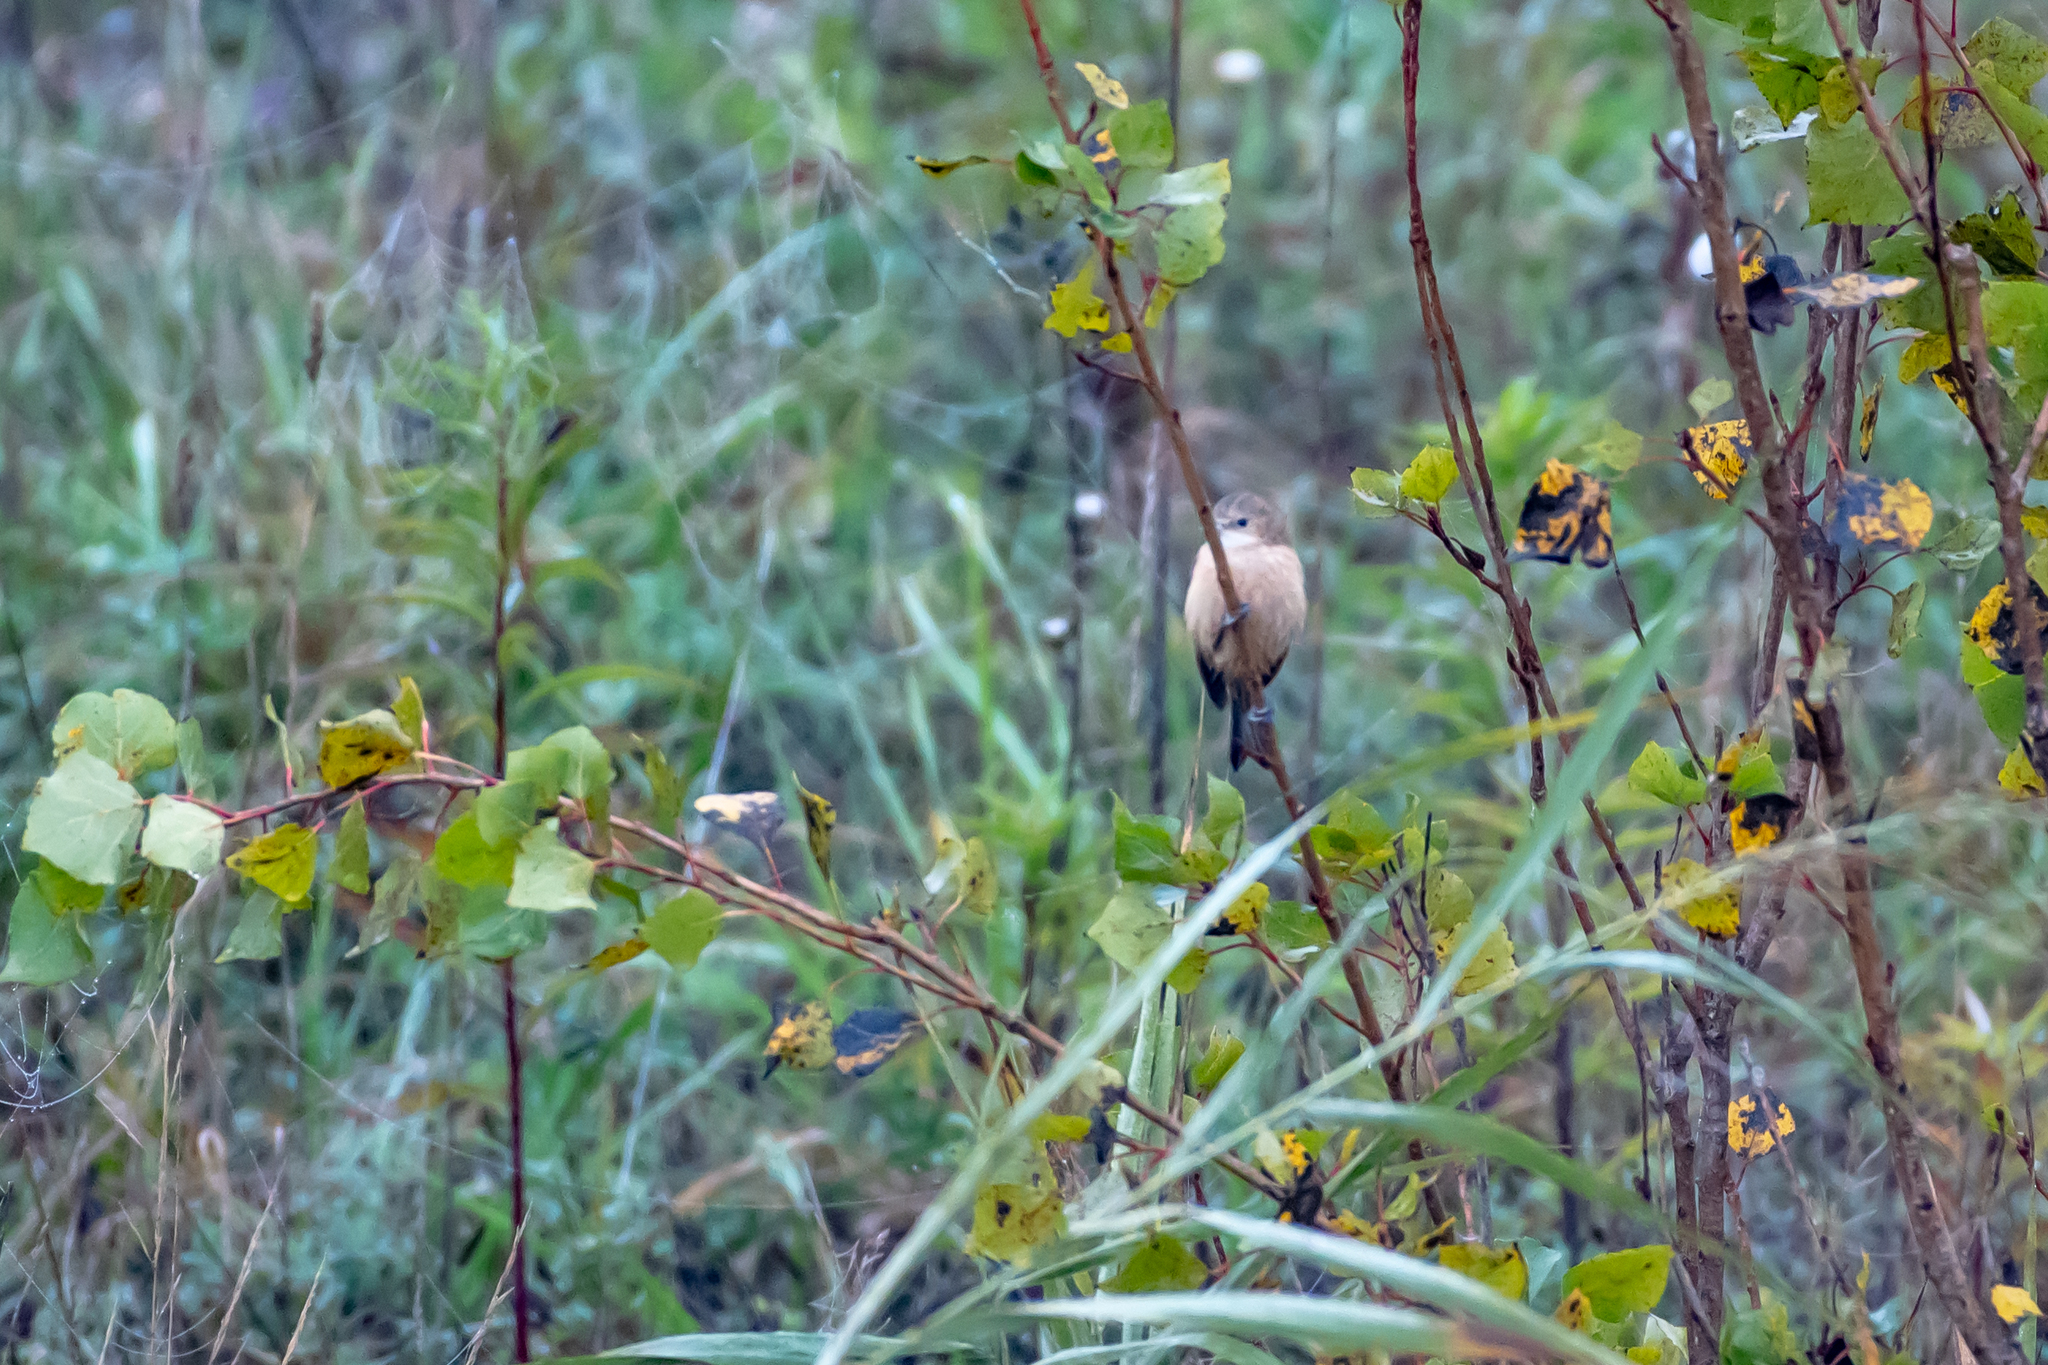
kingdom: Animalia
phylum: Chordata
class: Aves
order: Passeriformes
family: Remizidae
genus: Remiz
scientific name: Remiz pendulinus
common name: Eurasian penduline tit
